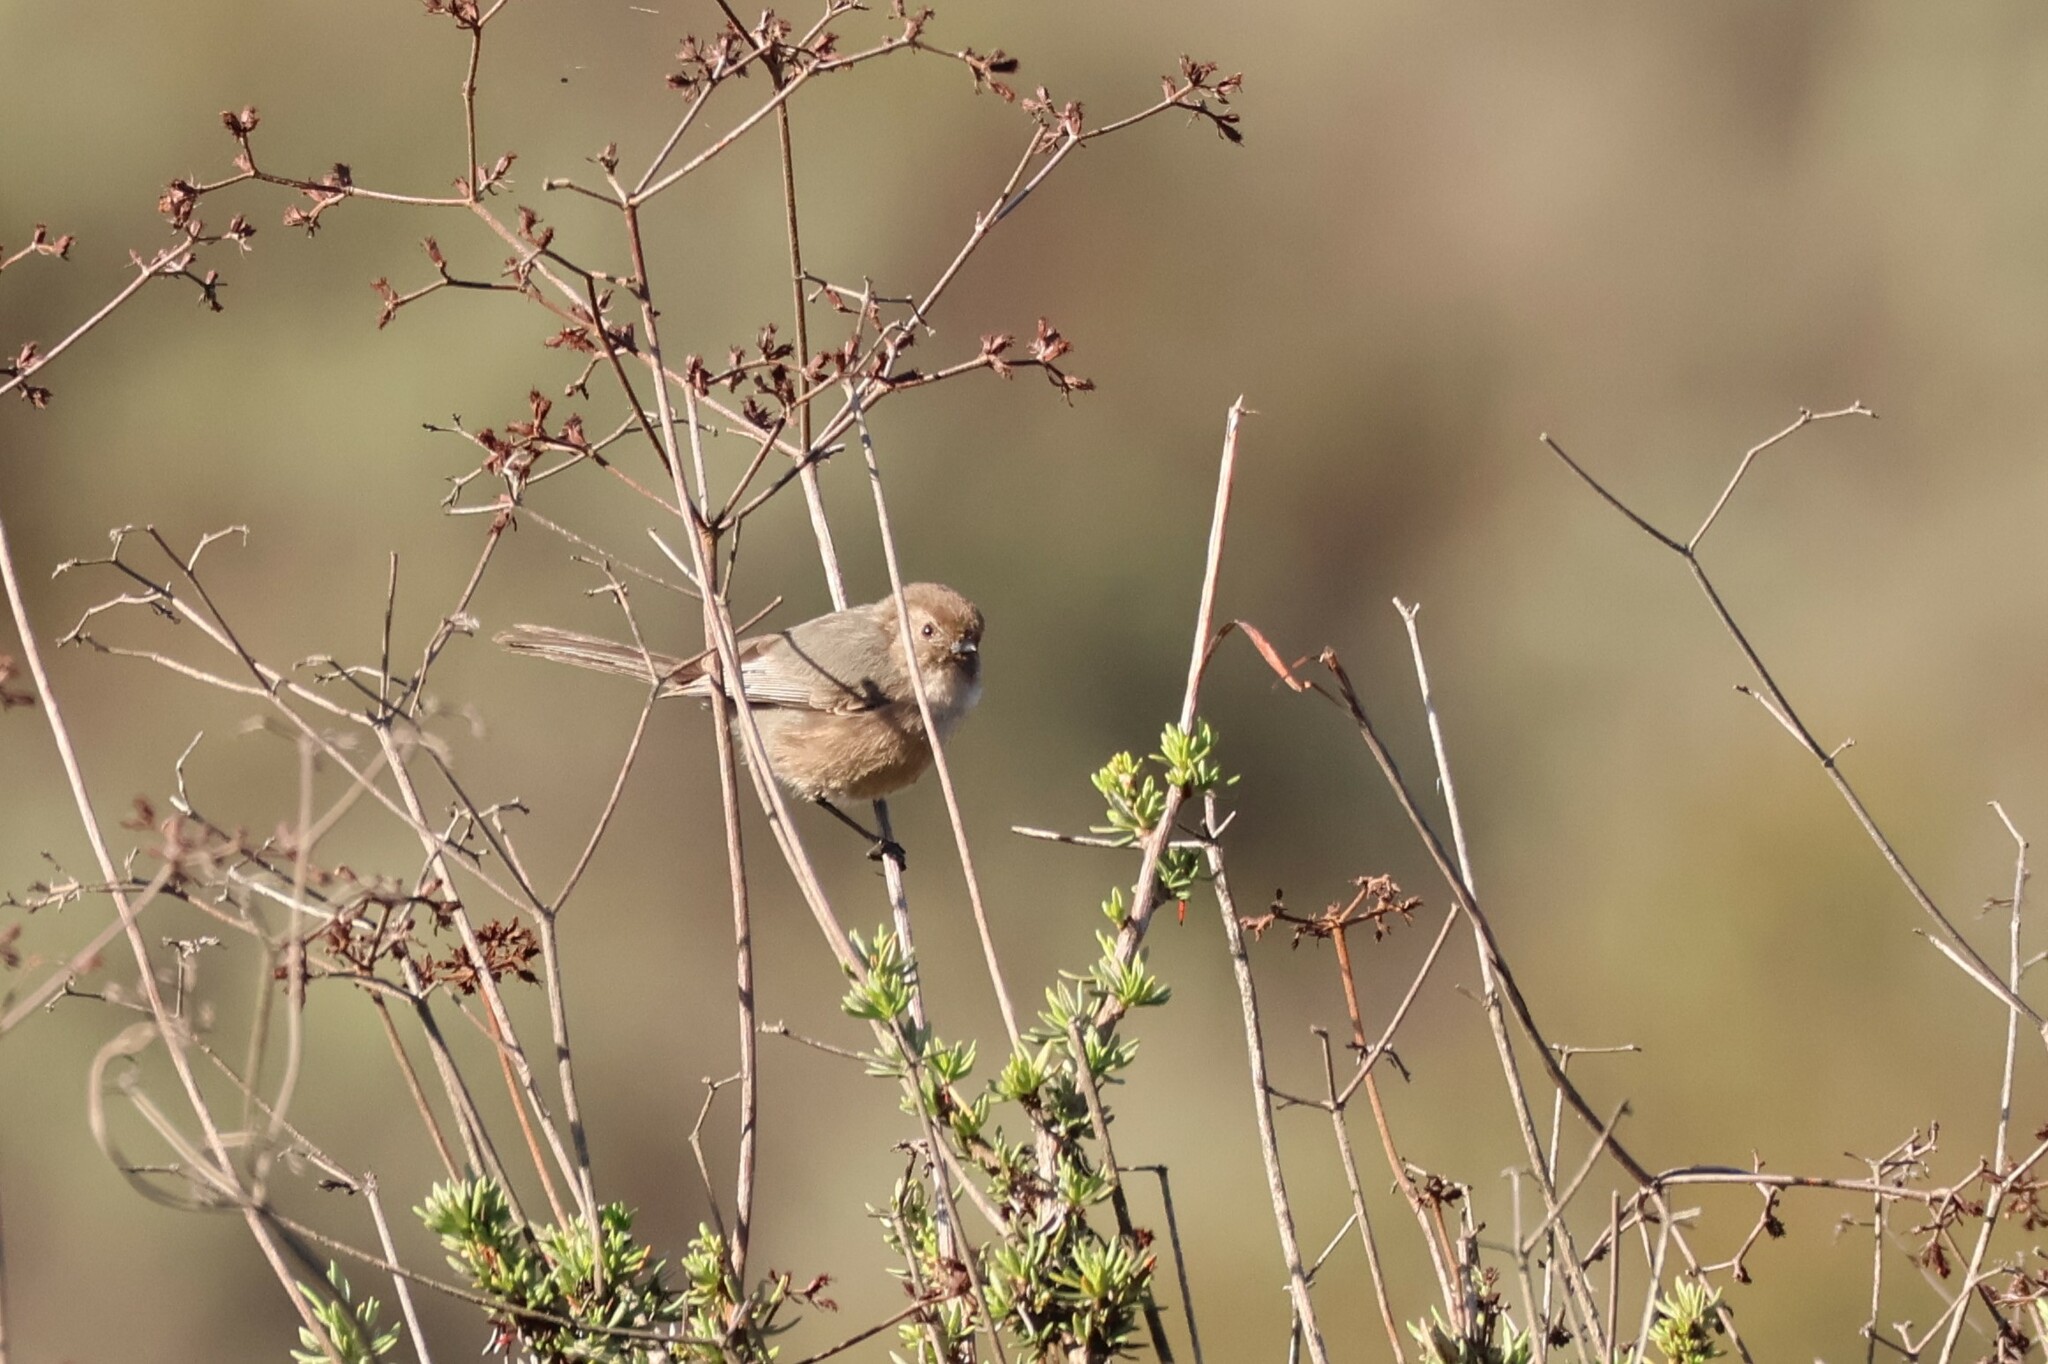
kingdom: Animalia
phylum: Chordata
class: Aves
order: Passeriformes
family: Aegithalidae
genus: Psaltriparus
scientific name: Psaltriparus minimus
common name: American bushtit
